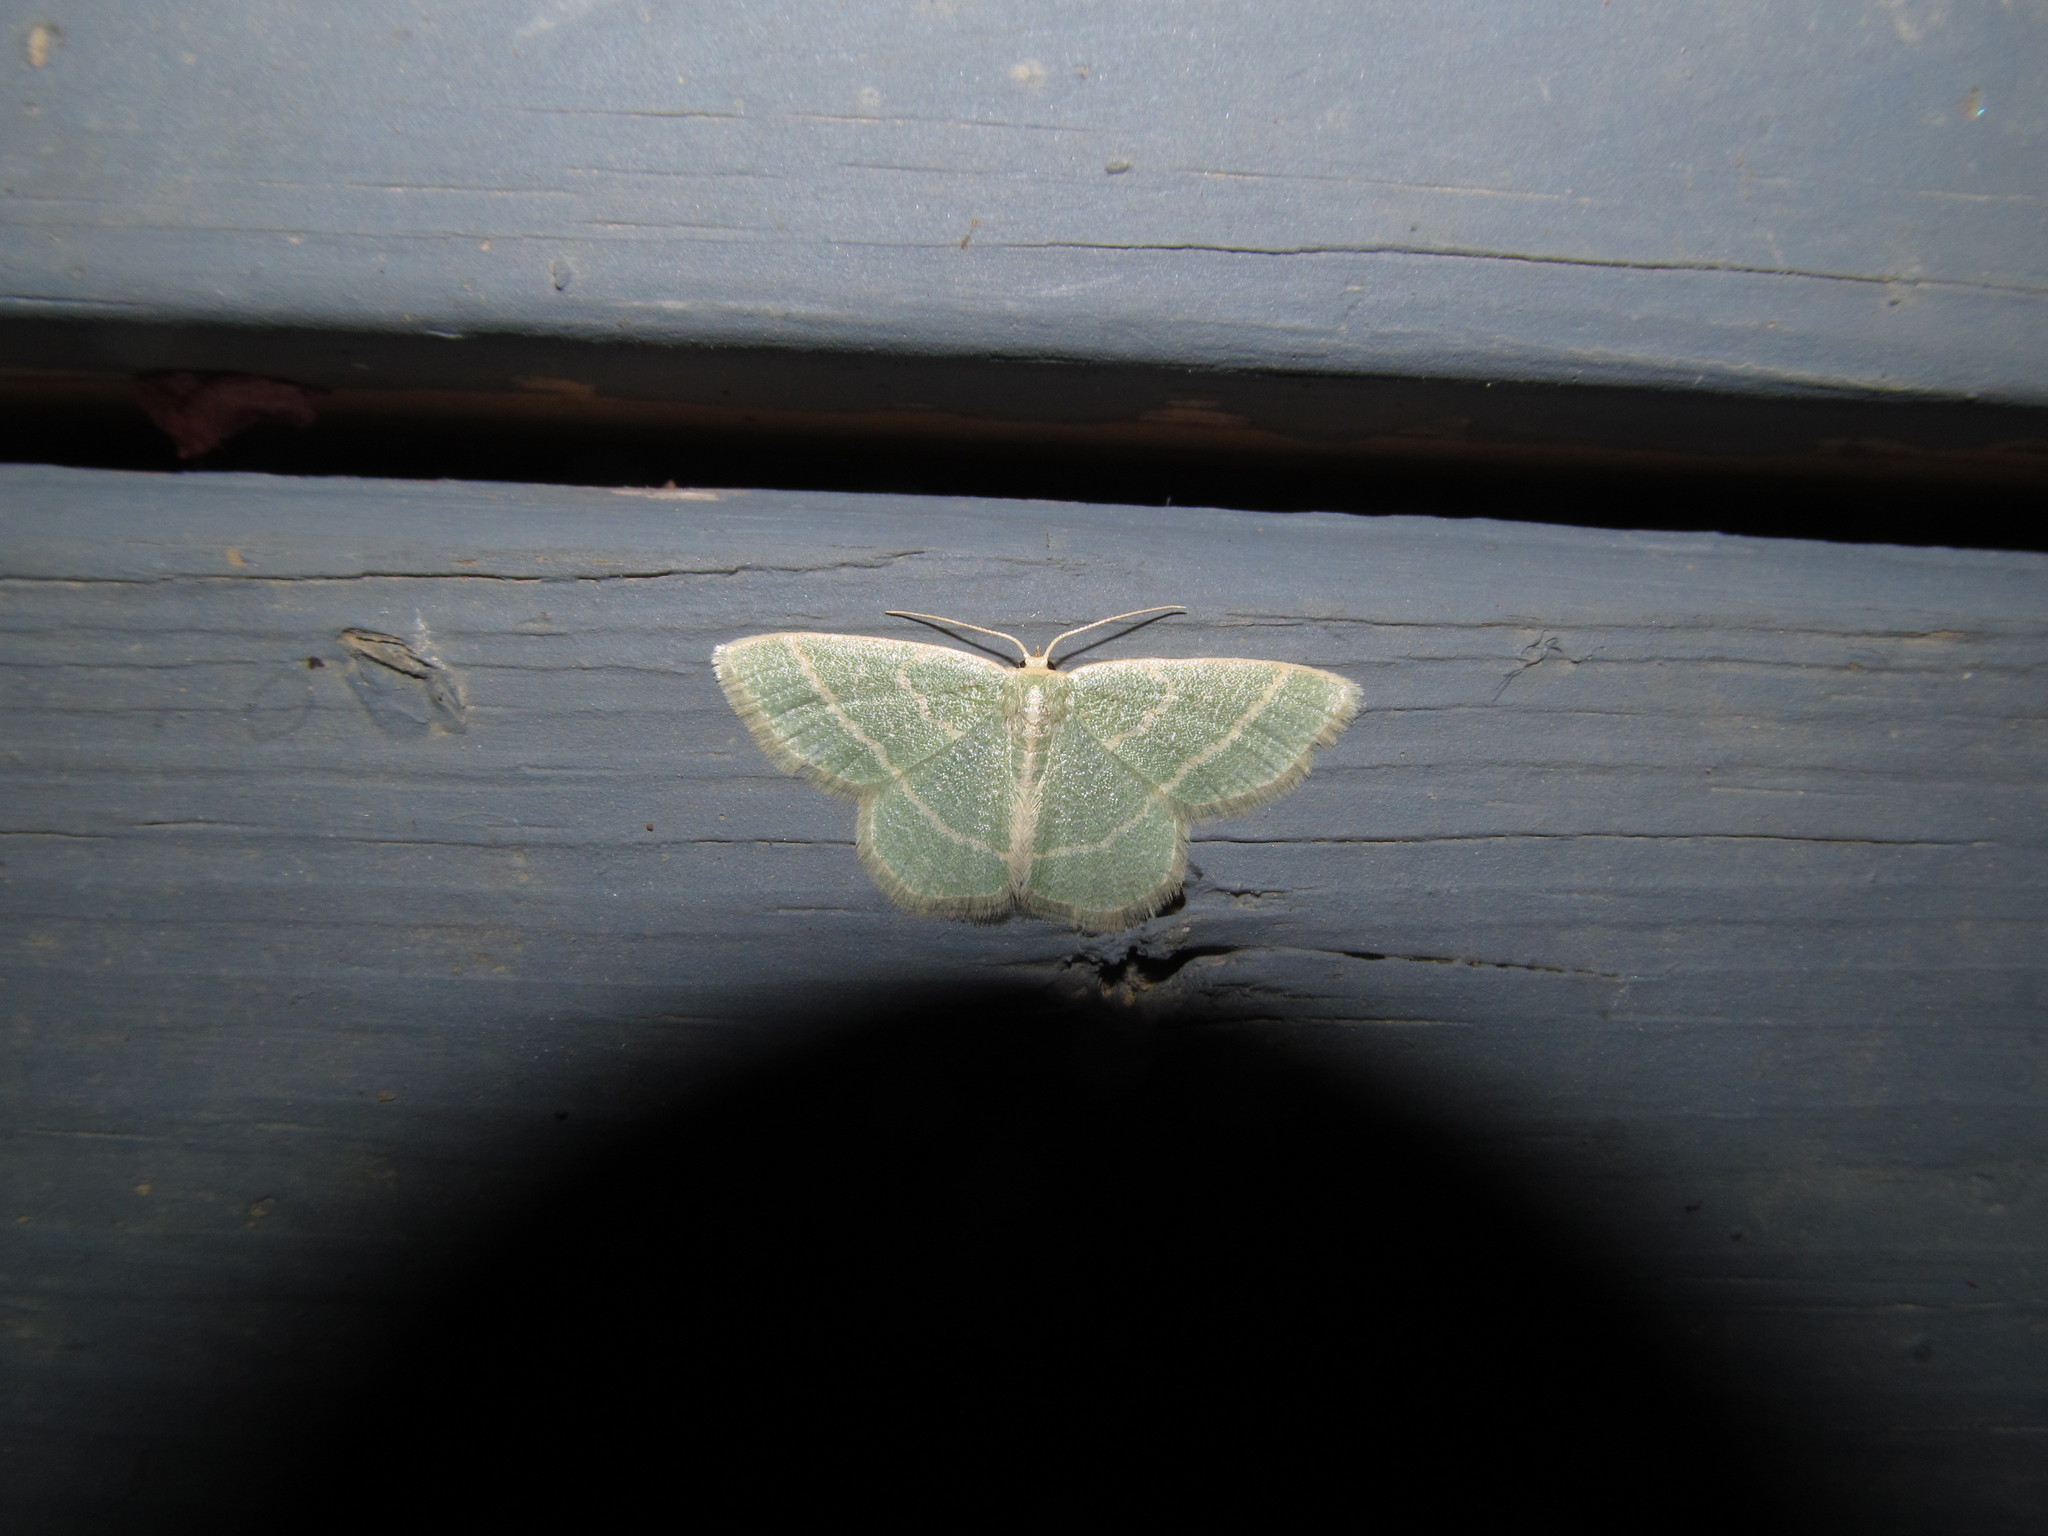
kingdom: Animalia
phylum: Arthropoda
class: Insecta
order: Lepidoptera
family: Geometridae
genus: Chlorochlamys
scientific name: Chlorochlamys chloroleucaria
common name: Blackberry looper
